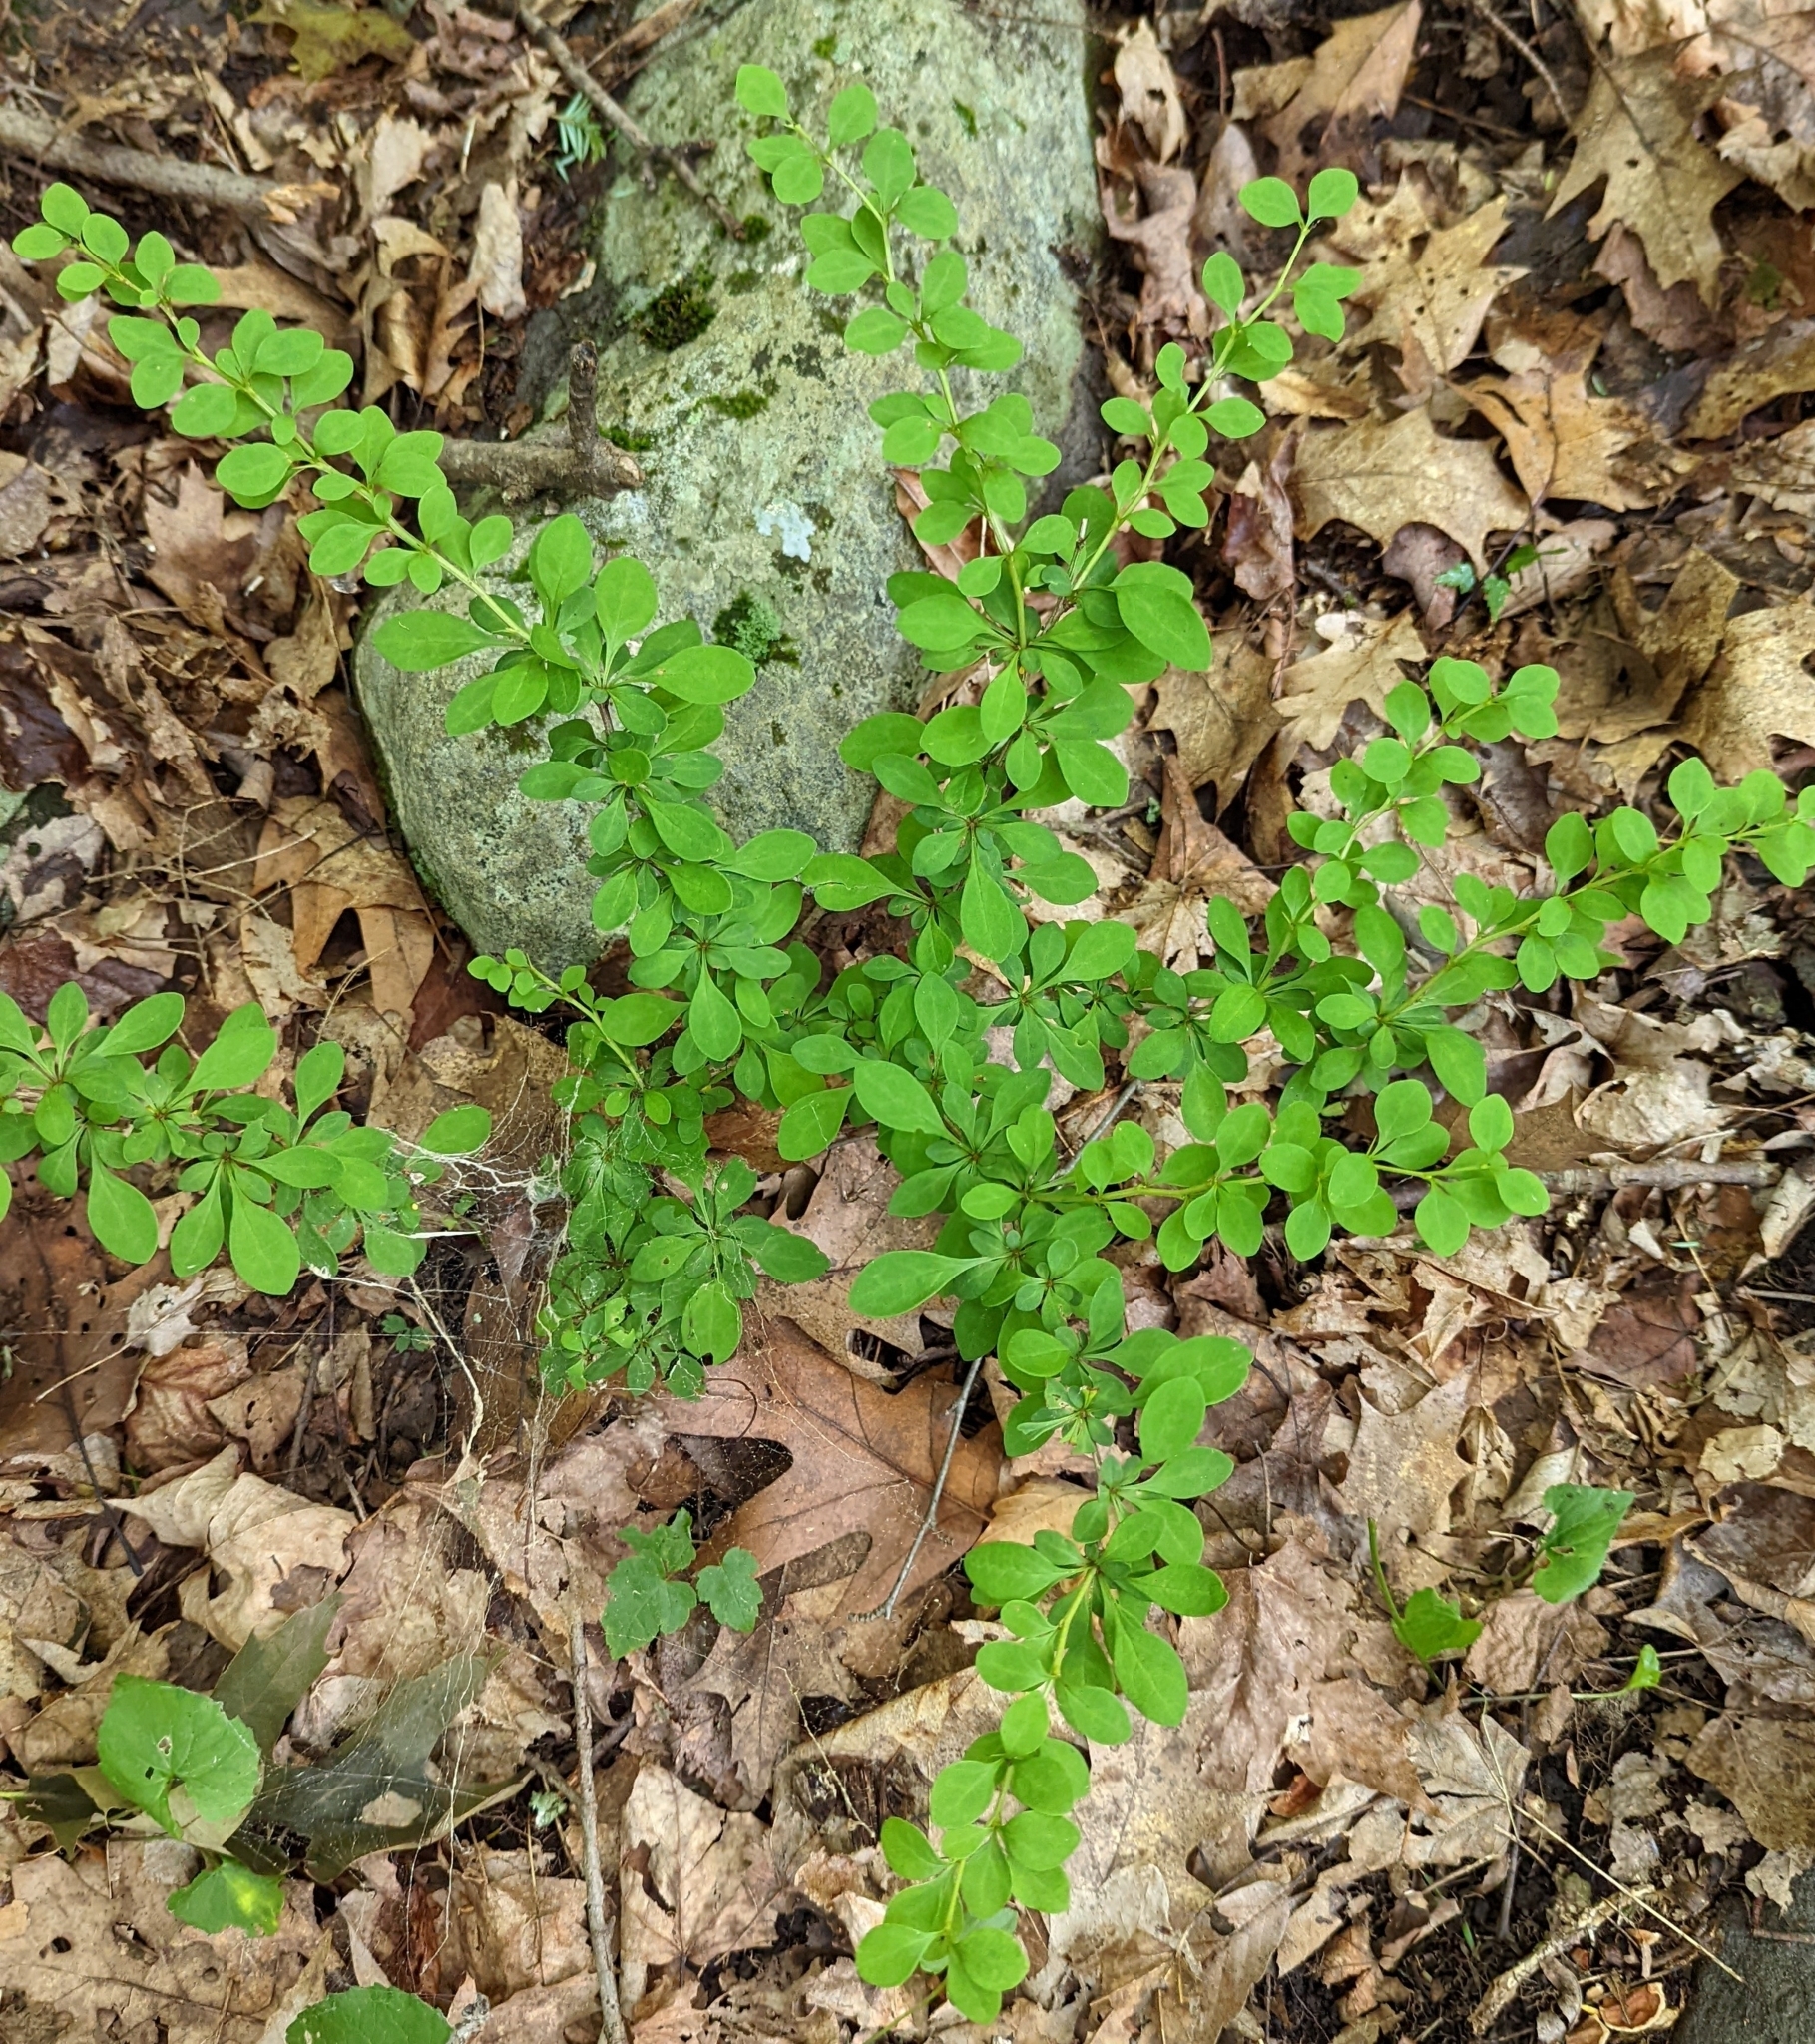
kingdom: Plantae
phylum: Tracheophyta
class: Magnoliopsida
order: Ranunculales
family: Berberidaceae
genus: Berberis
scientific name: Berberis thunbergii
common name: Japanese barberry
